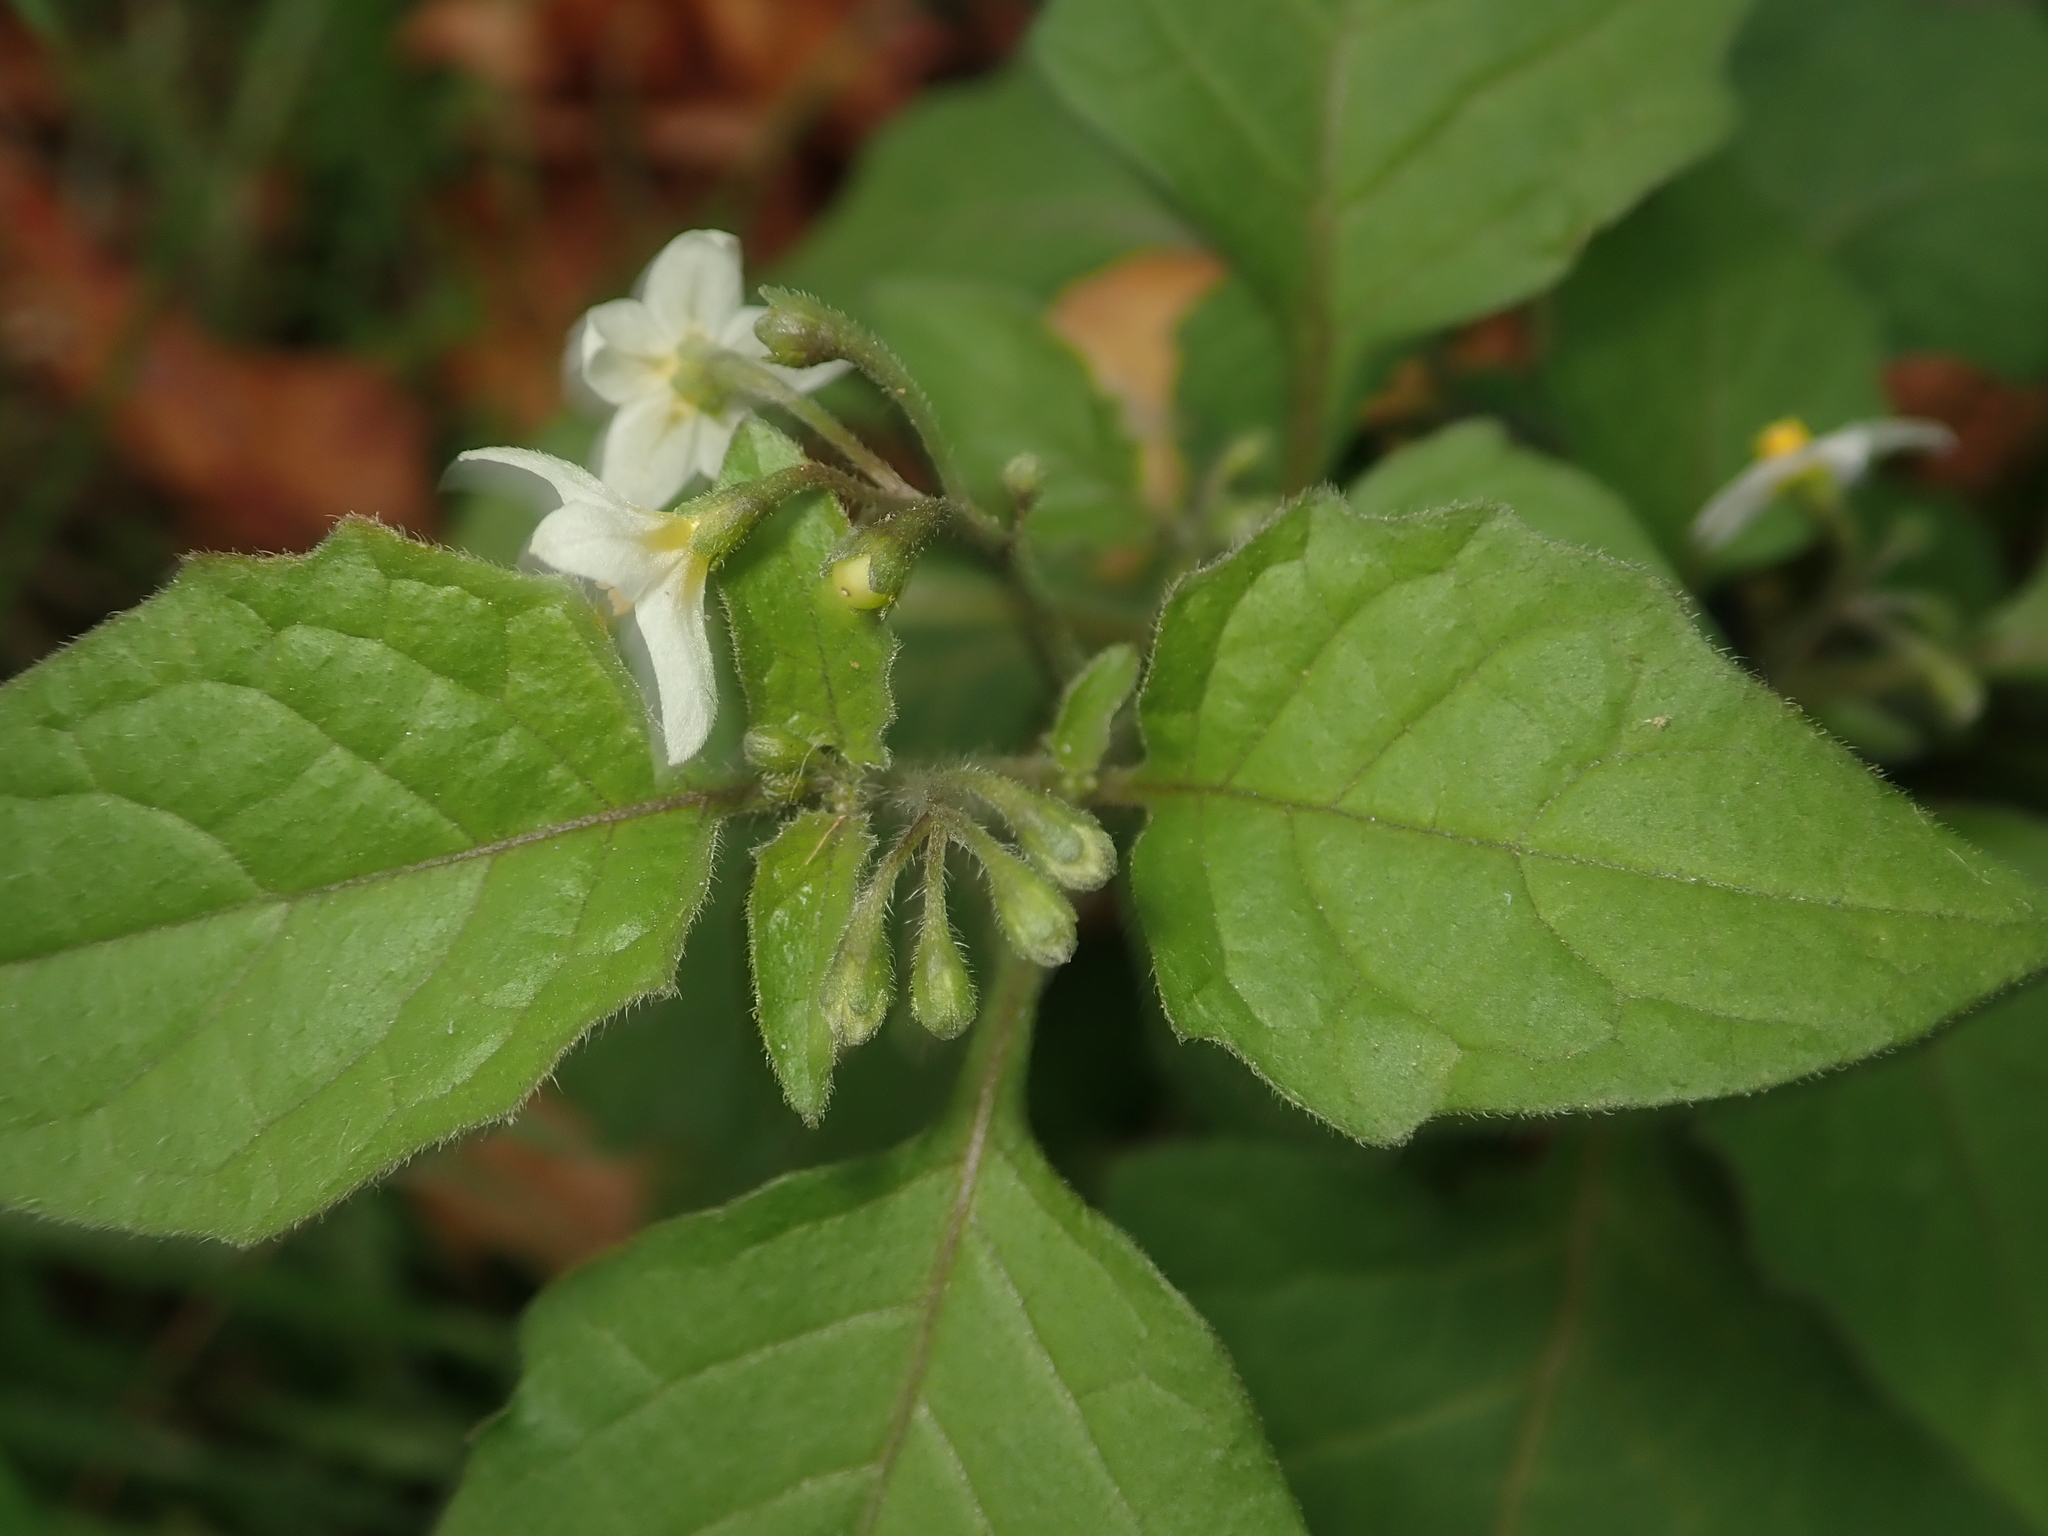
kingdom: Plantae
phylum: Tracheophyta
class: Magnoliopsida
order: Solanales
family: Solanaceae
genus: Solanum
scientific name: Solanum nigrum
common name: Black nightshade
